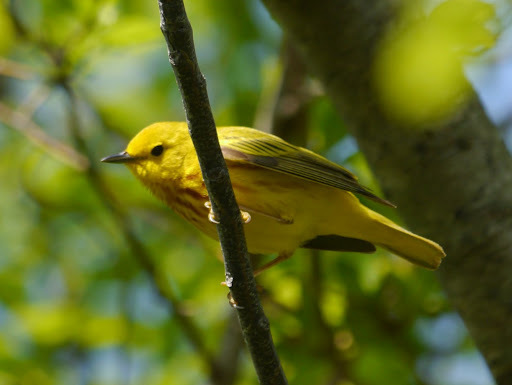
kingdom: Animalia
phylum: Chordata
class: Aves
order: Passeriformes
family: Parulidae
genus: Setophaga
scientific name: Setophaga petechia
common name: Yellow warbler
